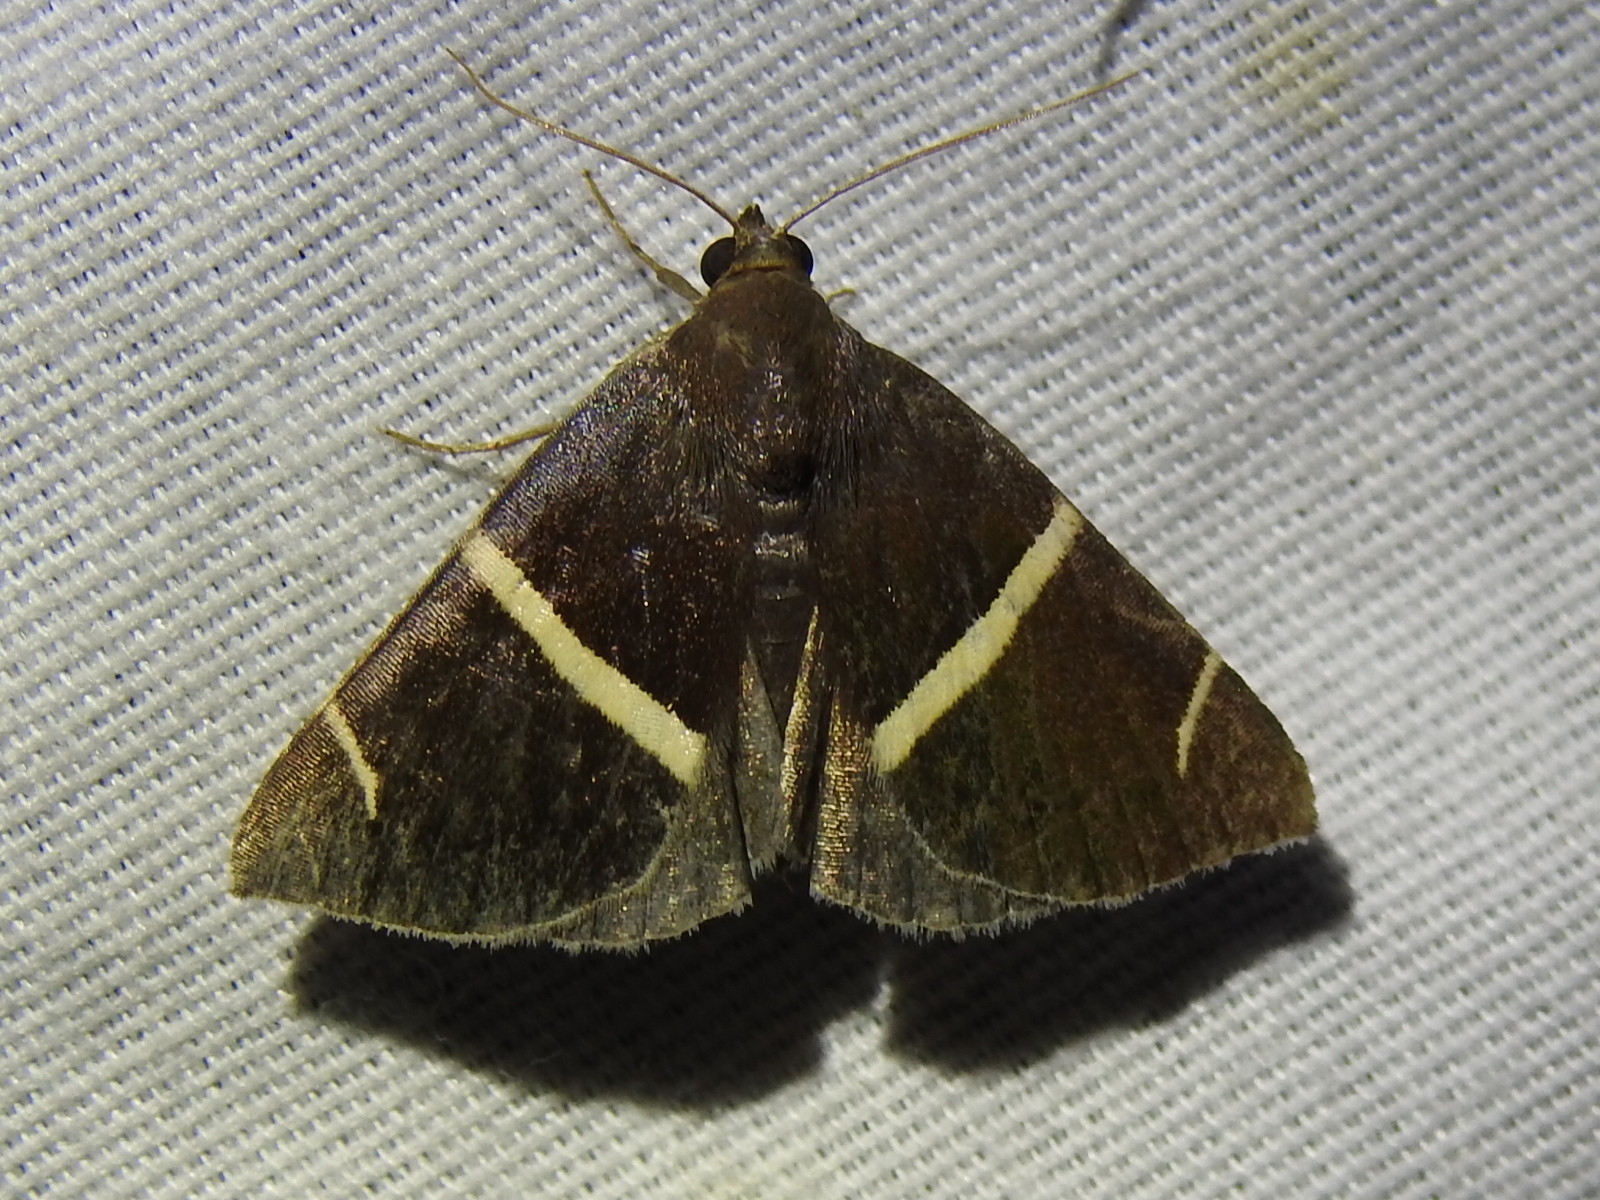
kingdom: Animalia
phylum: Arthropoda
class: Insecta
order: Lepidoptera
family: Erebidae
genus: Argyrostrotis
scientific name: Argyrostrotis anilis
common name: Short-lined chocolate
